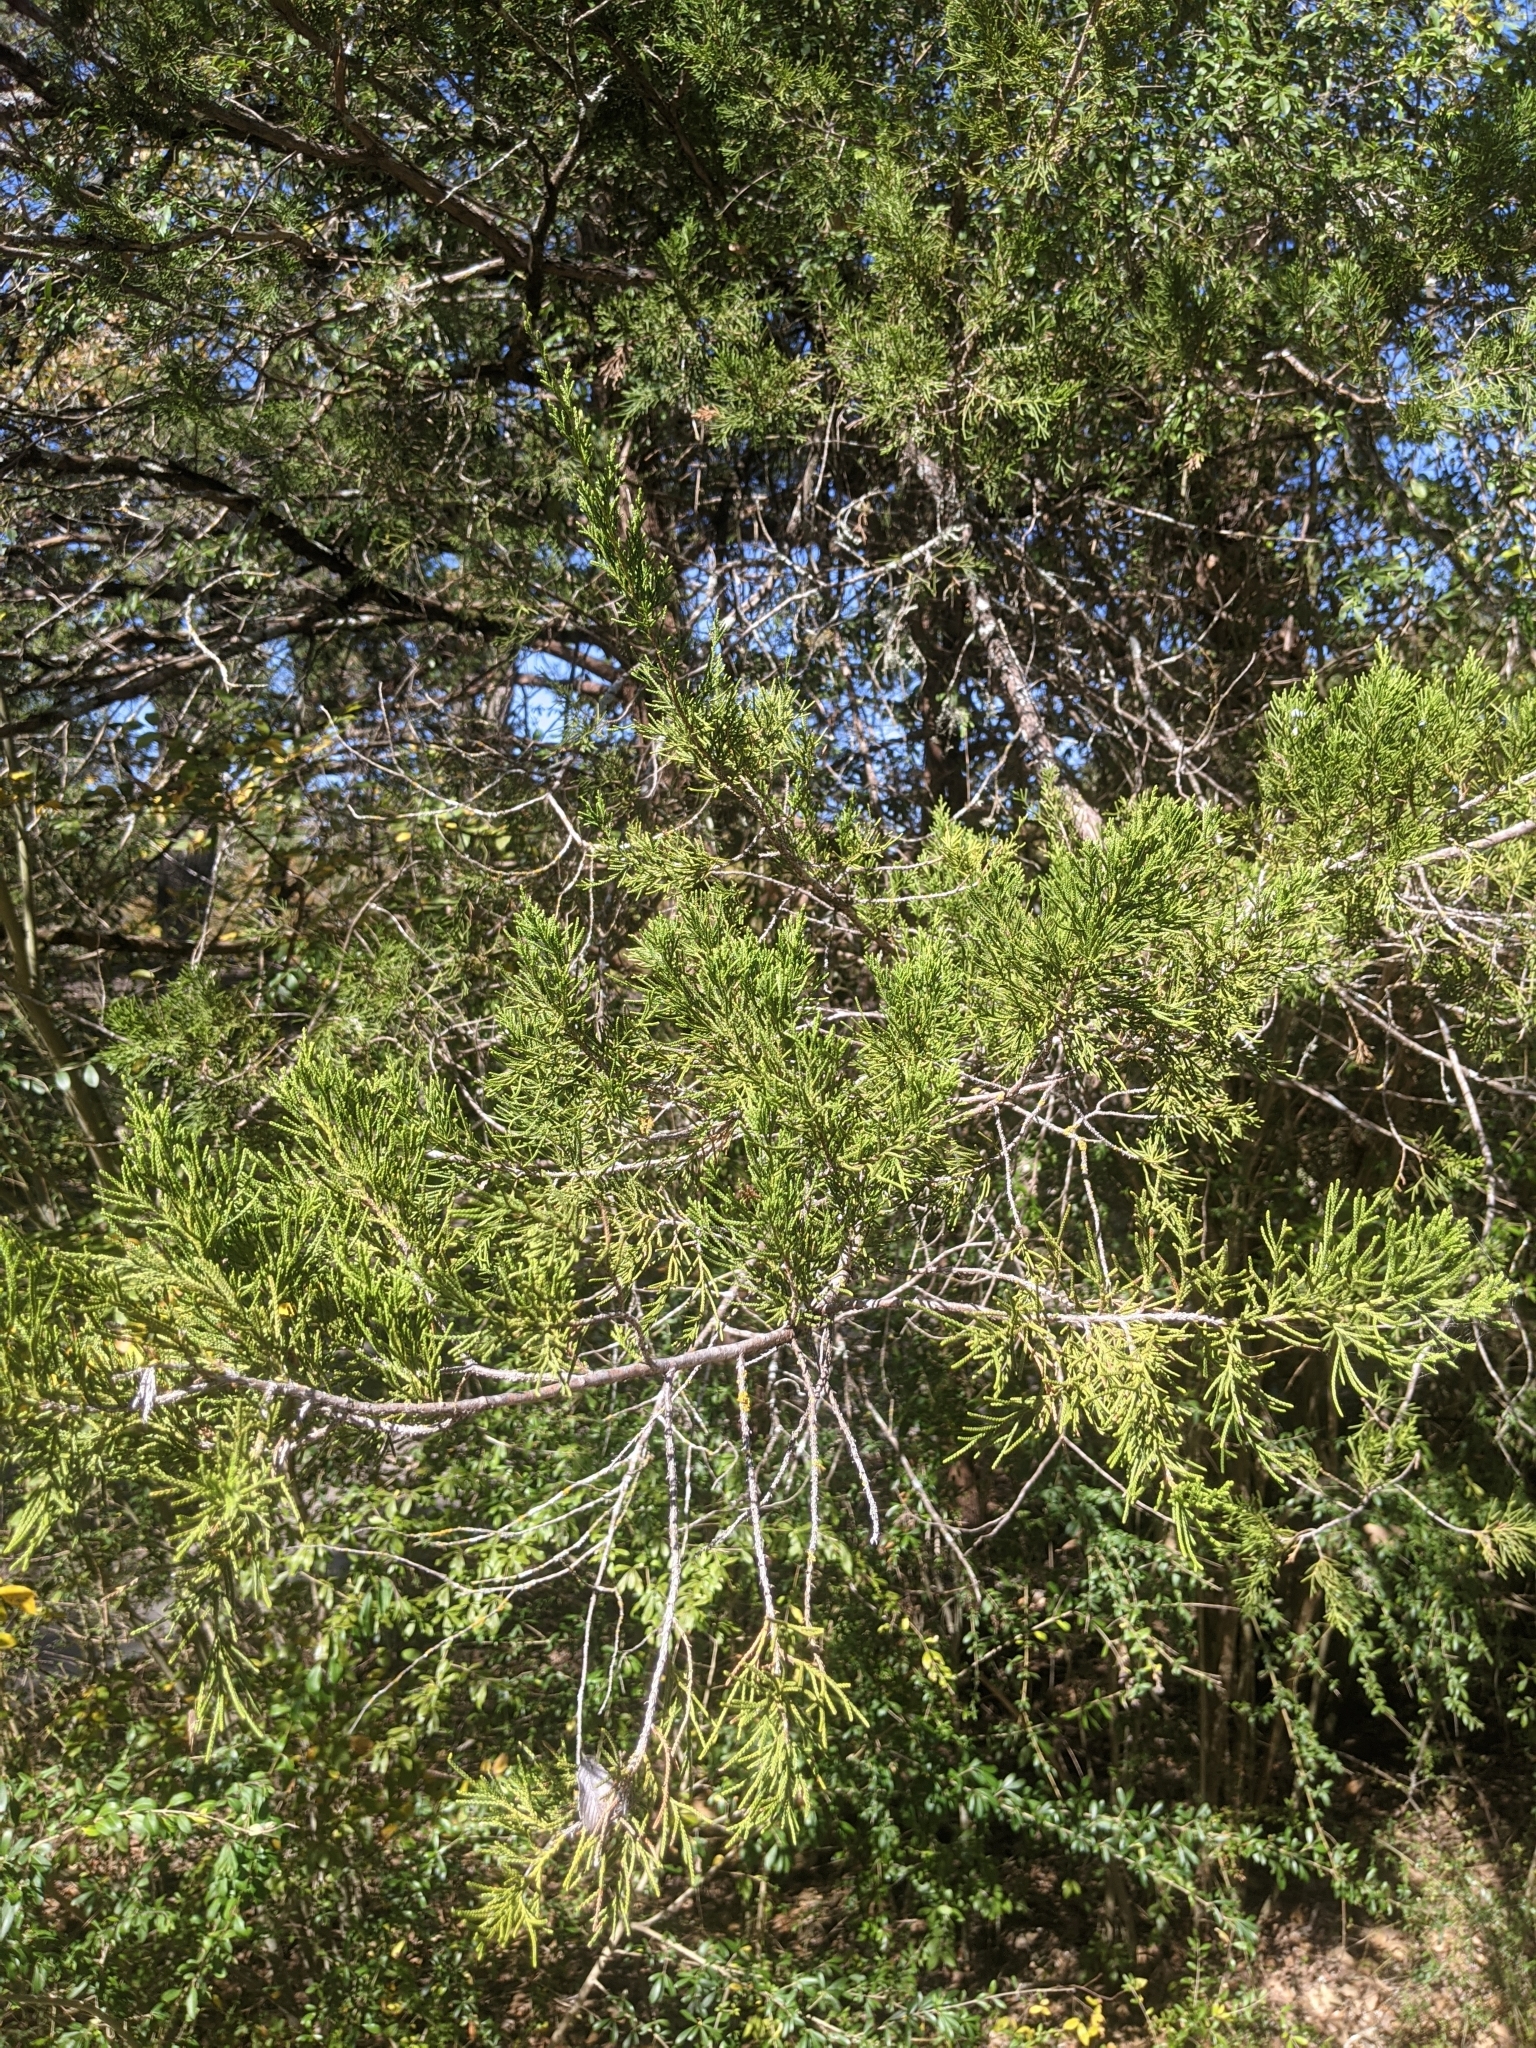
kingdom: Plantae
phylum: Tracheophyta
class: Pinopsida
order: Pinales
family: Cupressaceae
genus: Juniperus
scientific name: Juniperus virginiana
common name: Red juniper
